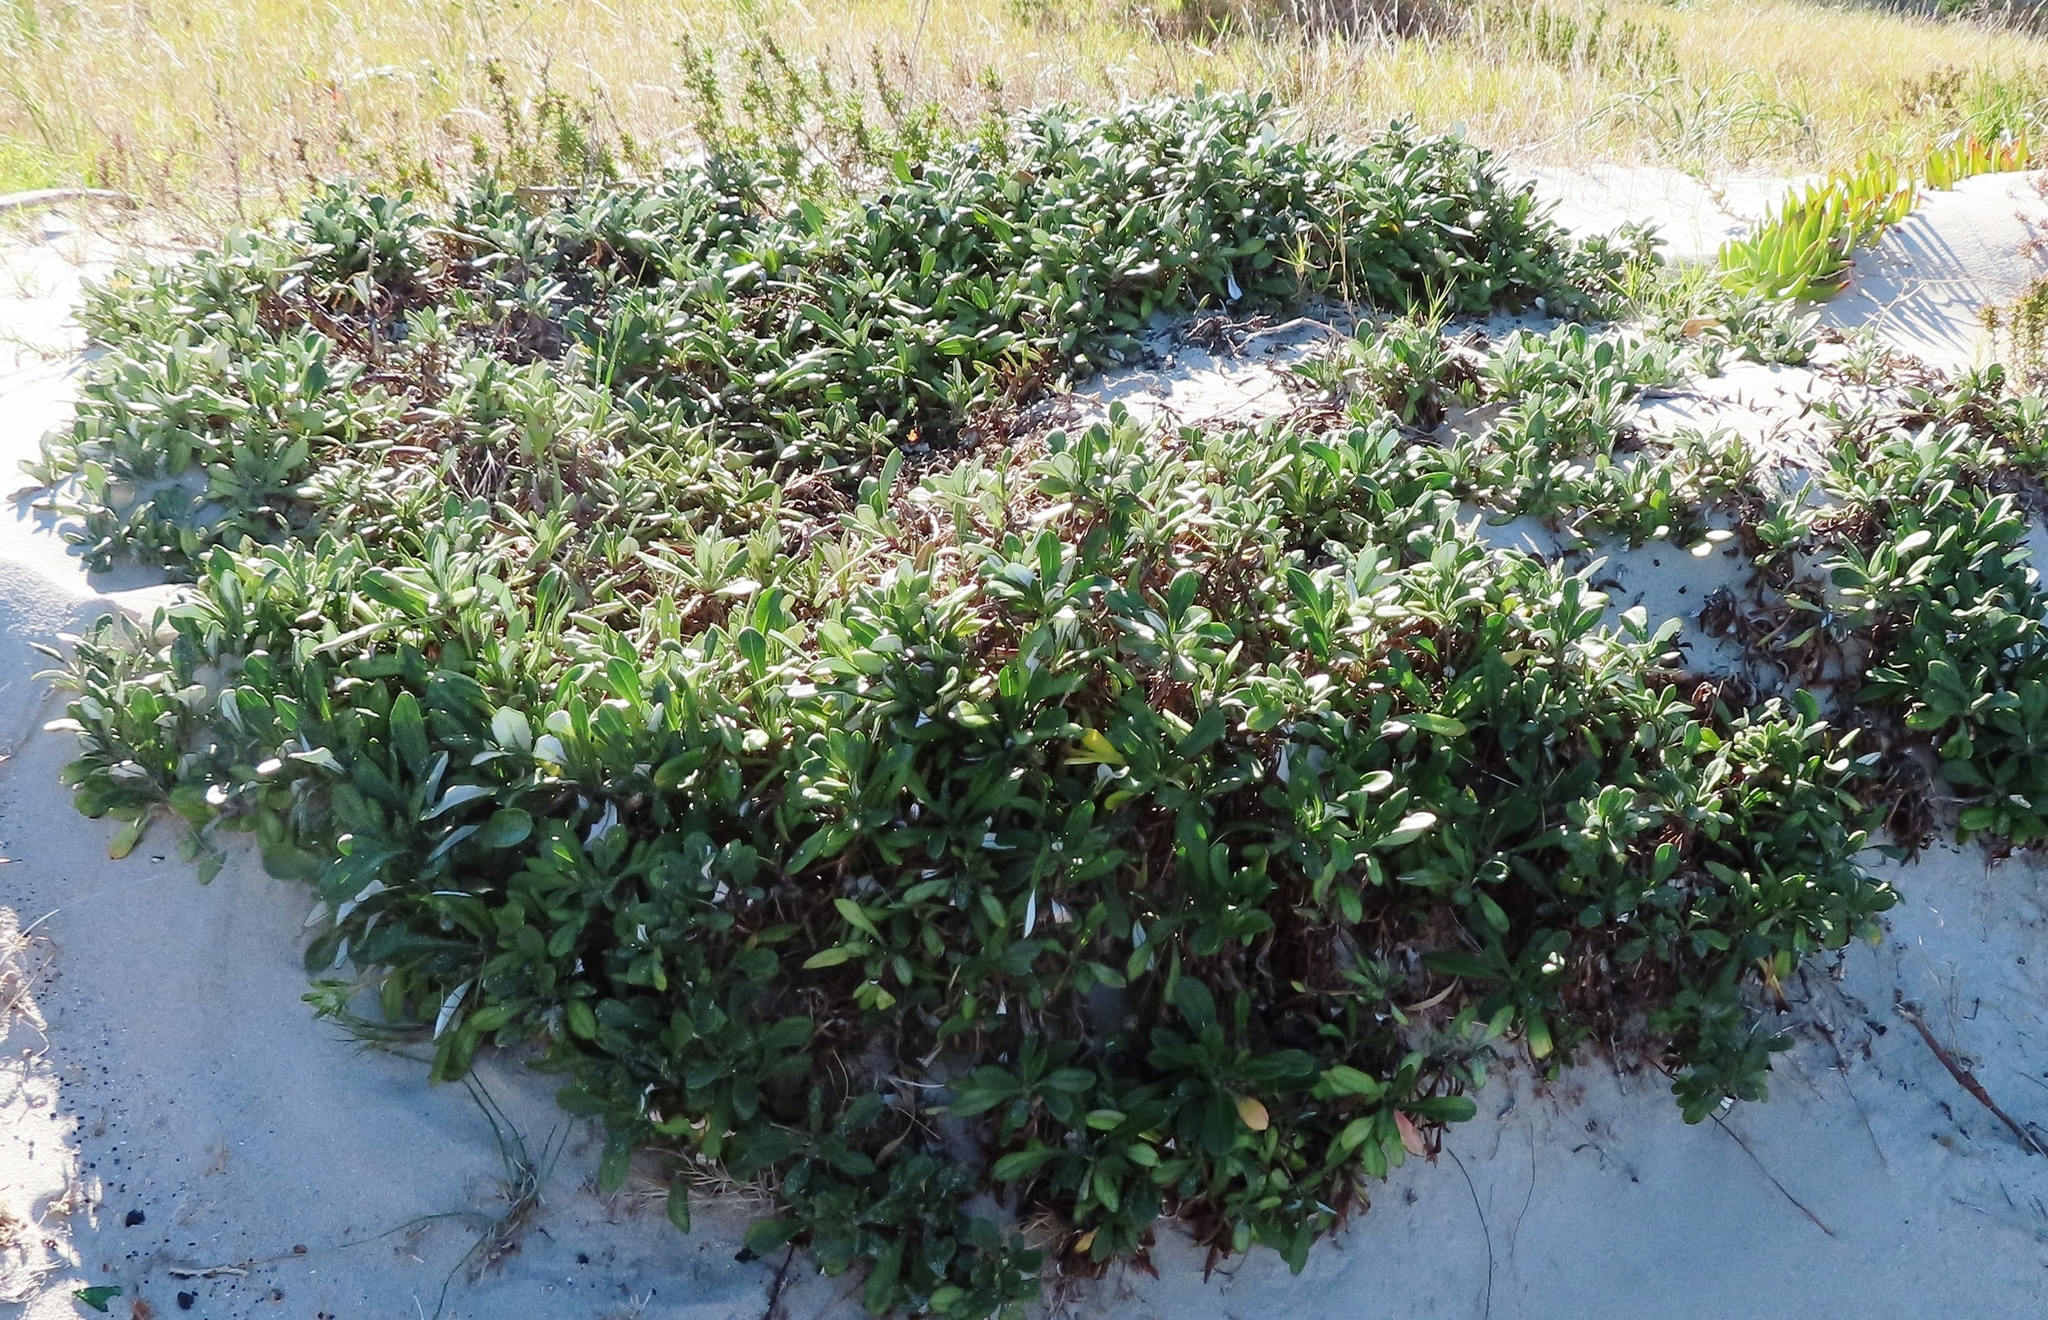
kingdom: Plantae
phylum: Tracheophyta
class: Magnoliopsida
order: Asterales
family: Asteraceae
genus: Gazania
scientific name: Gazania rigens
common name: Treasureflower
